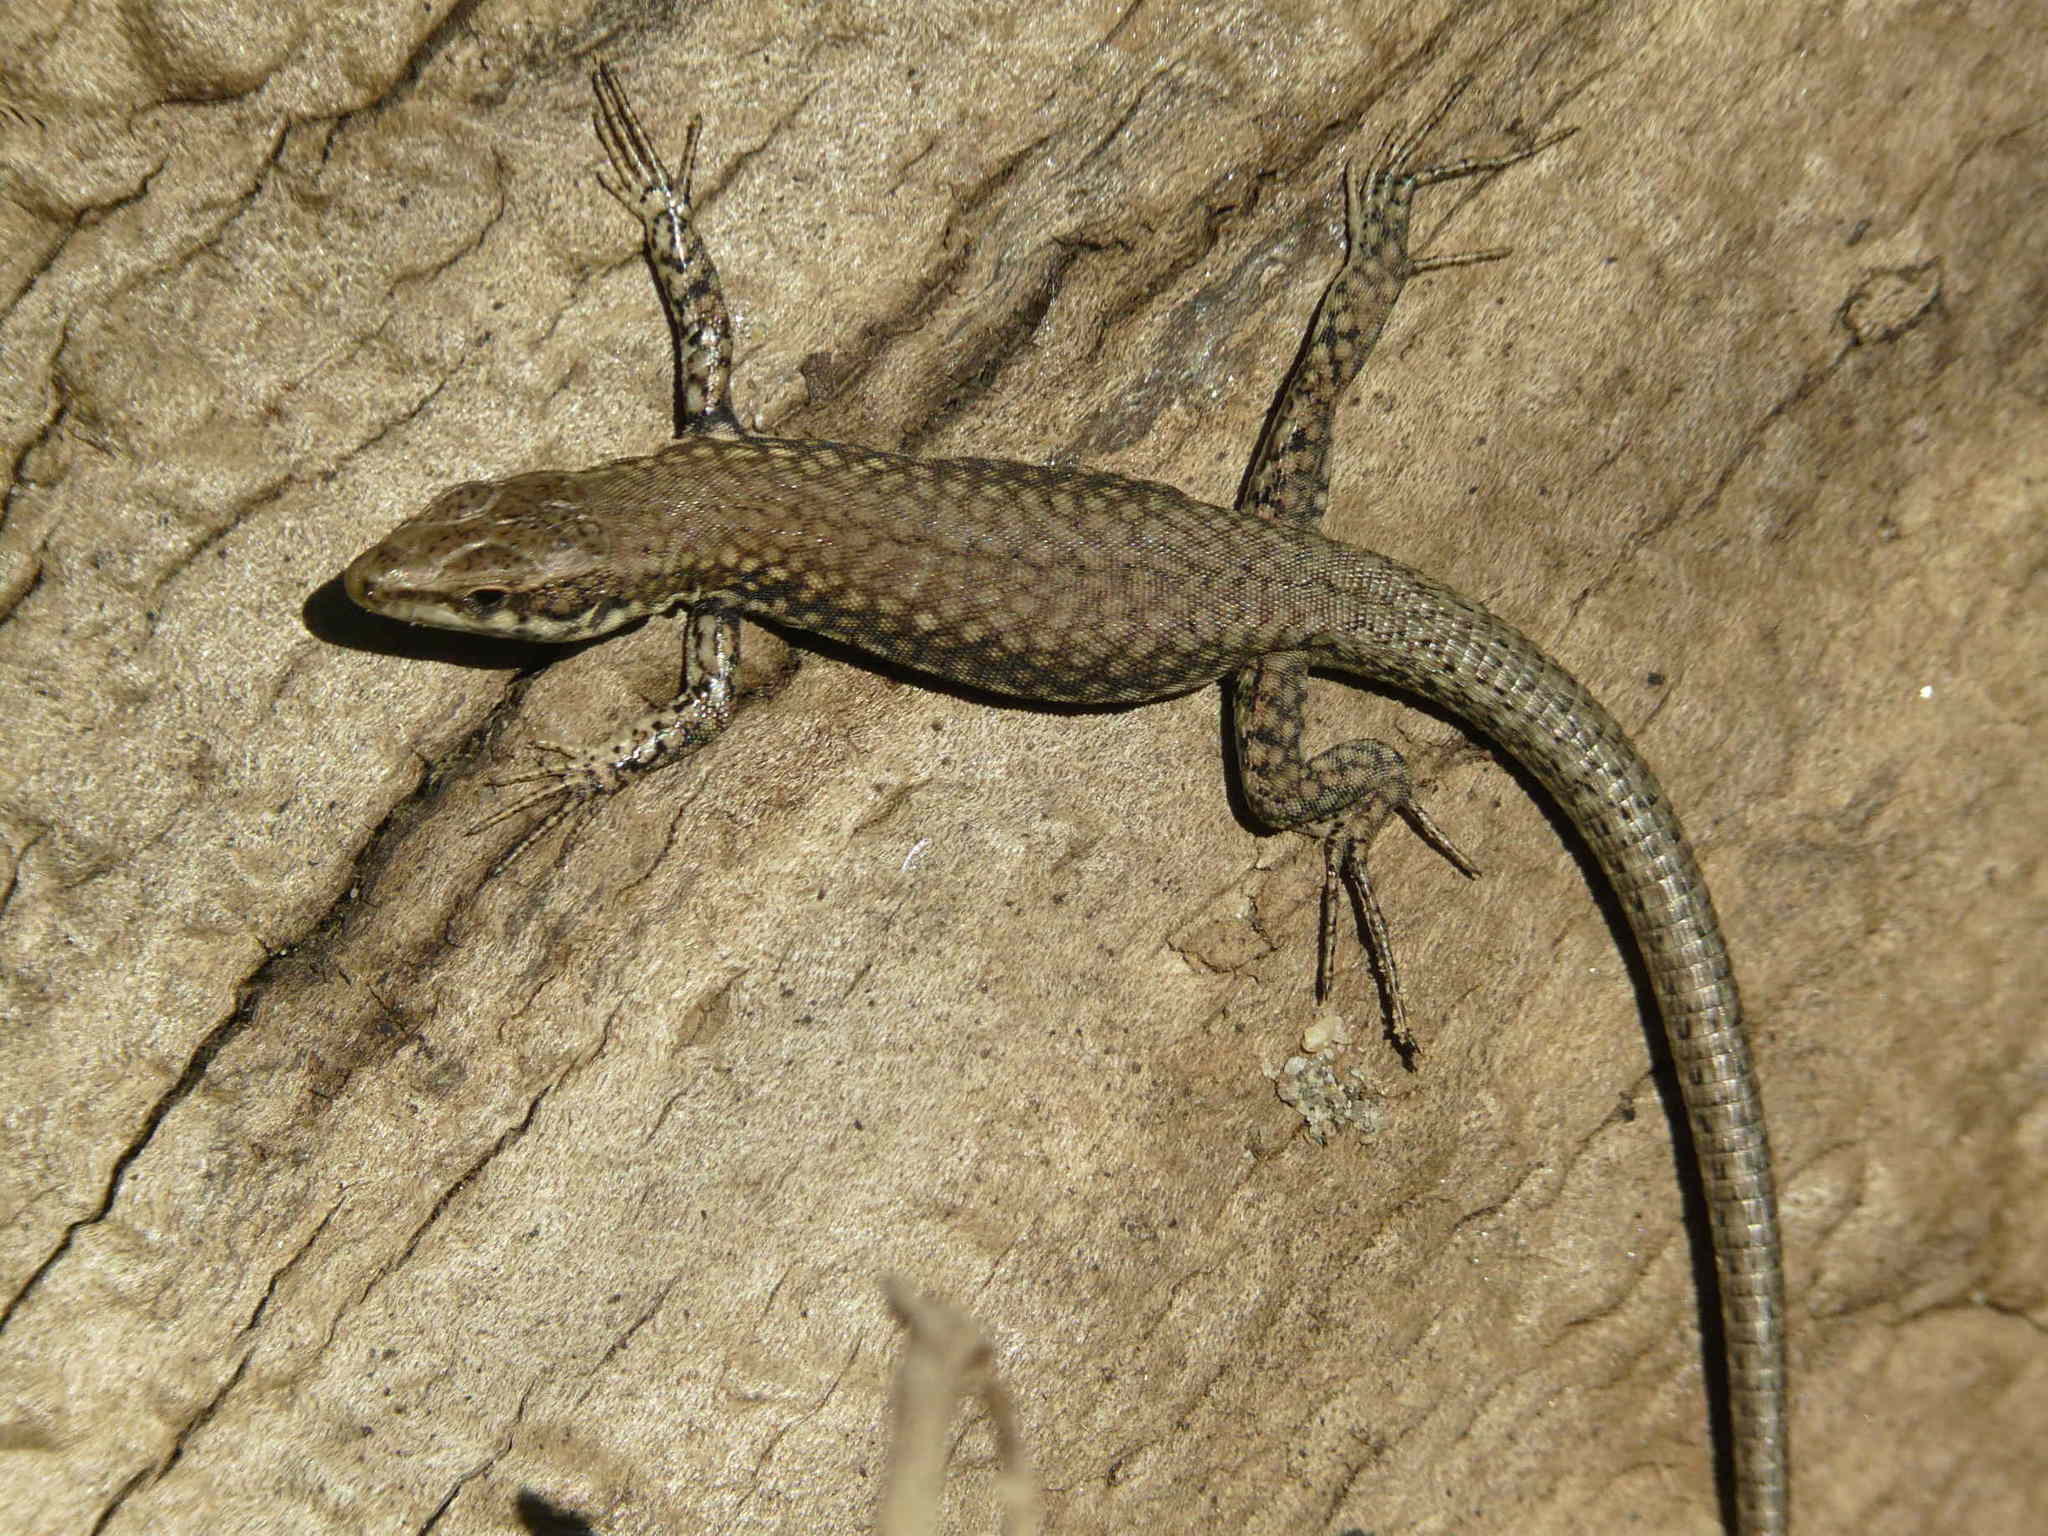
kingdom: Animalia
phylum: Chordata
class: Squamata
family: Lacertidae
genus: Podarcis
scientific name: Podarcis muralis
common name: Common wall lizard
